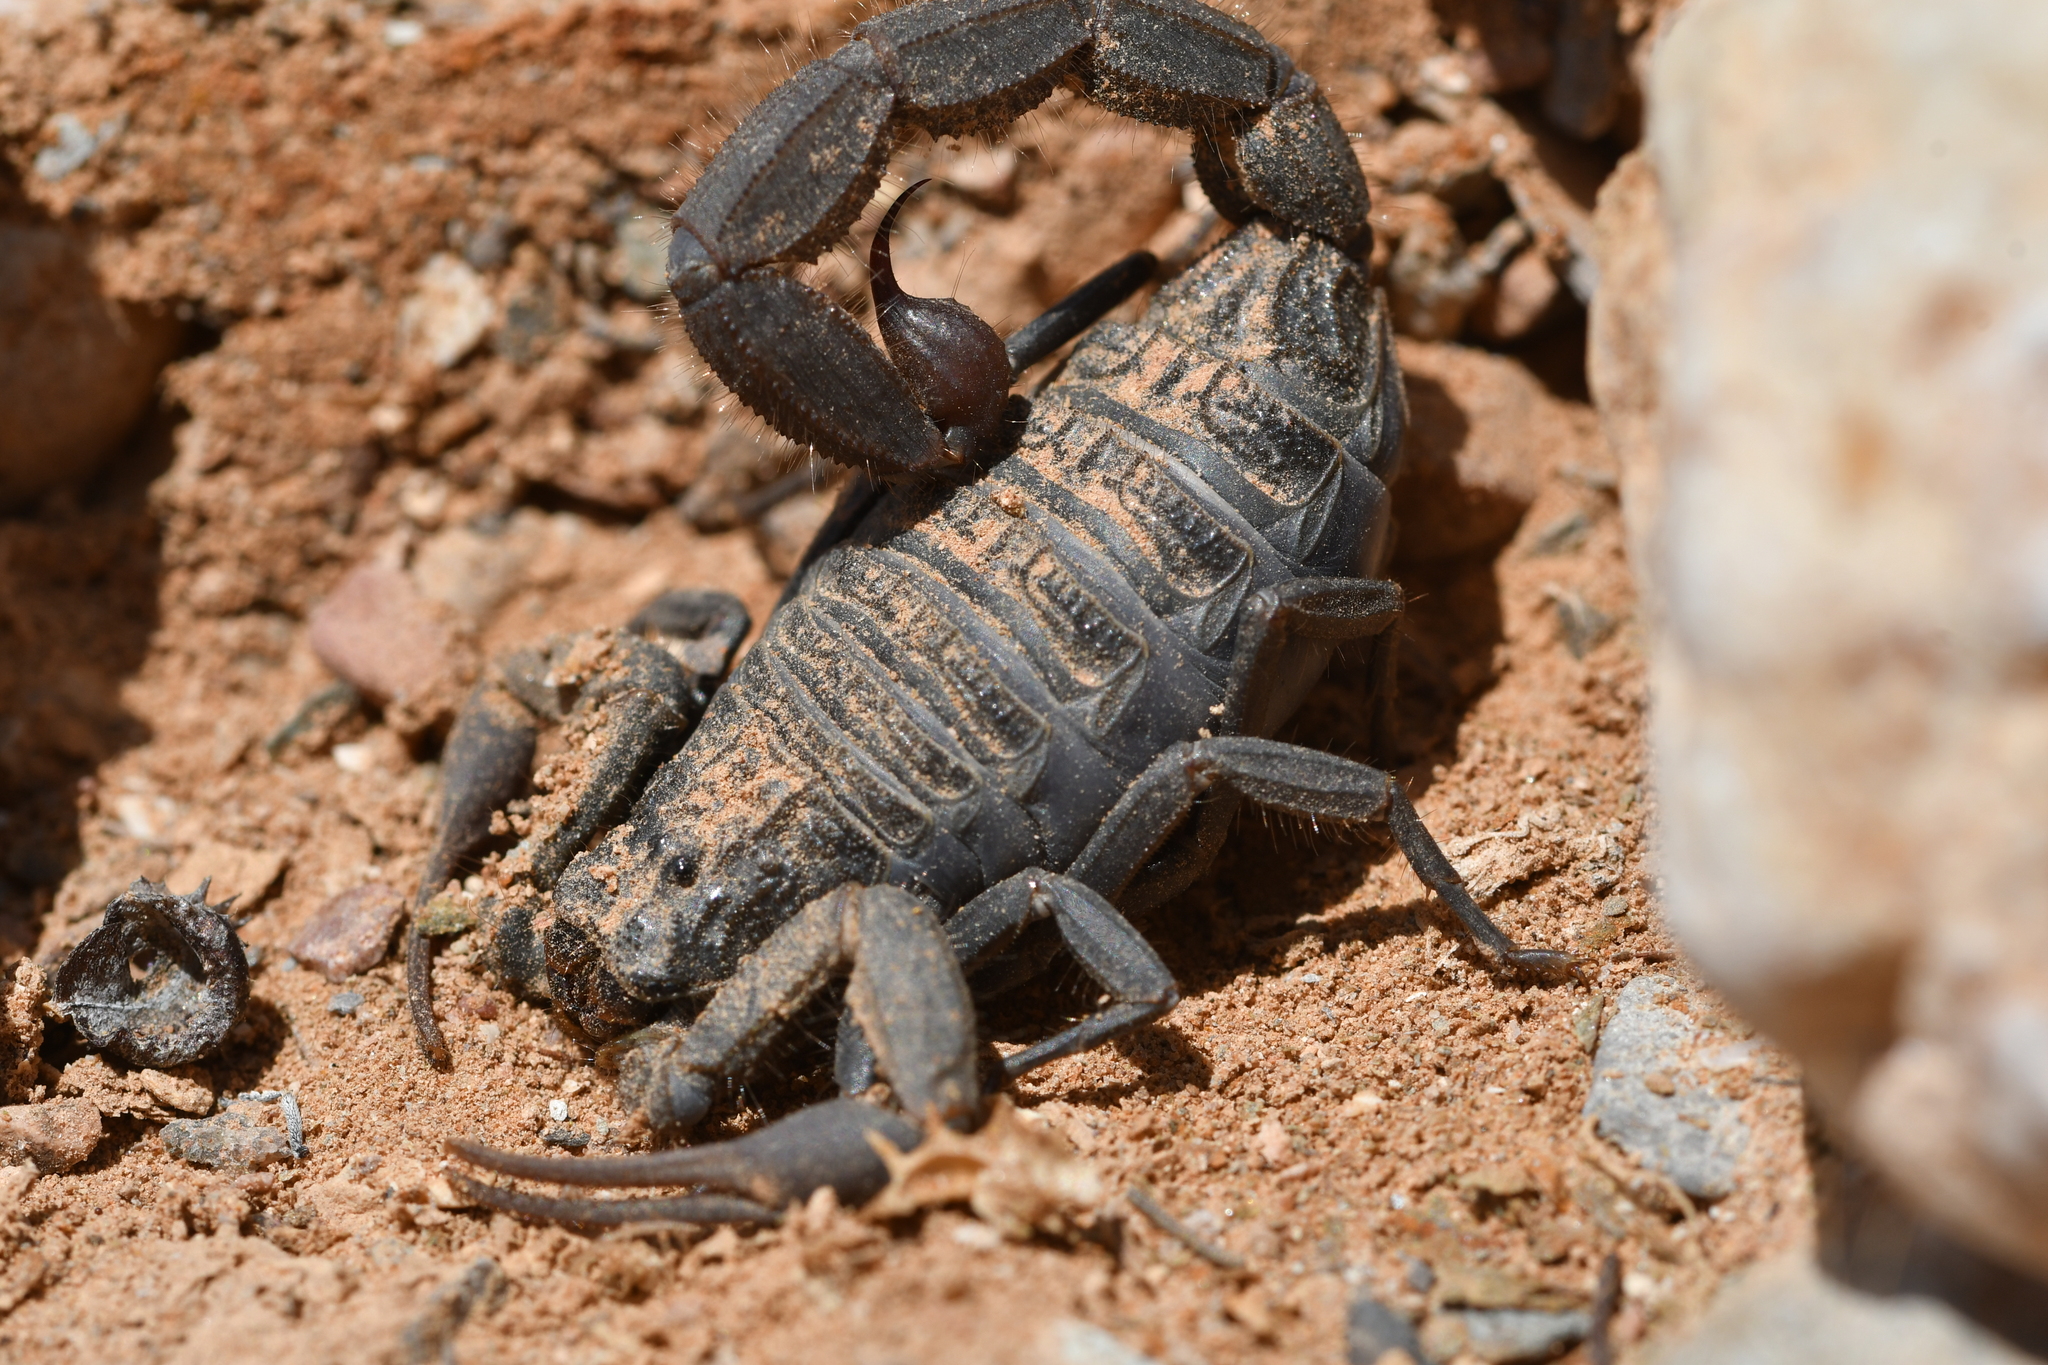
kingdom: Animalia
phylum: Arthropoda
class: Arachnida
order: Scorpiones
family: Buthidae
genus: Hottentotta
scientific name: Hottentotta gentili
